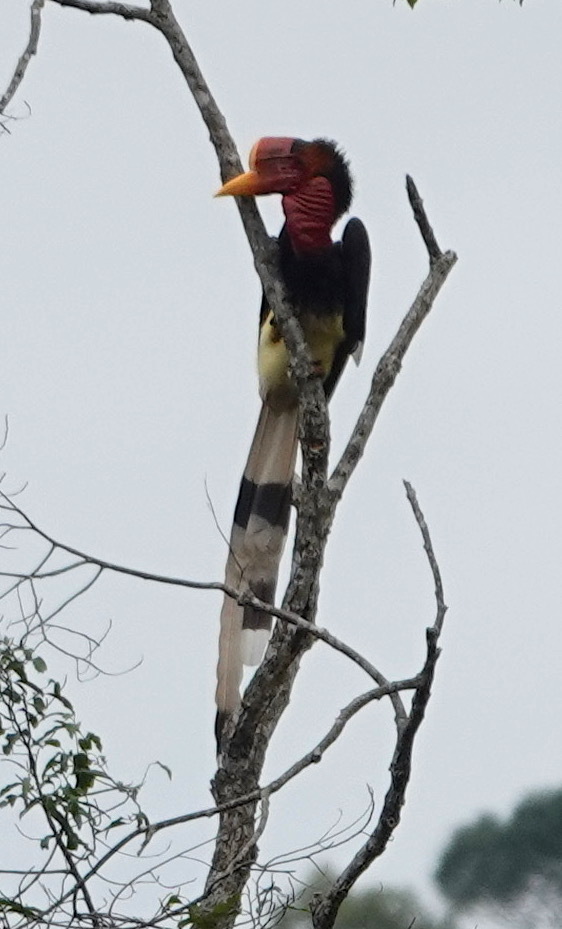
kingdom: Animalia
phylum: Chordata
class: Aves
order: Bucerotiformes
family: Bucerotidae
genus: Rhinoplax
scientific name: Rhinoplax vigil
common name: Helmeted hornbill
